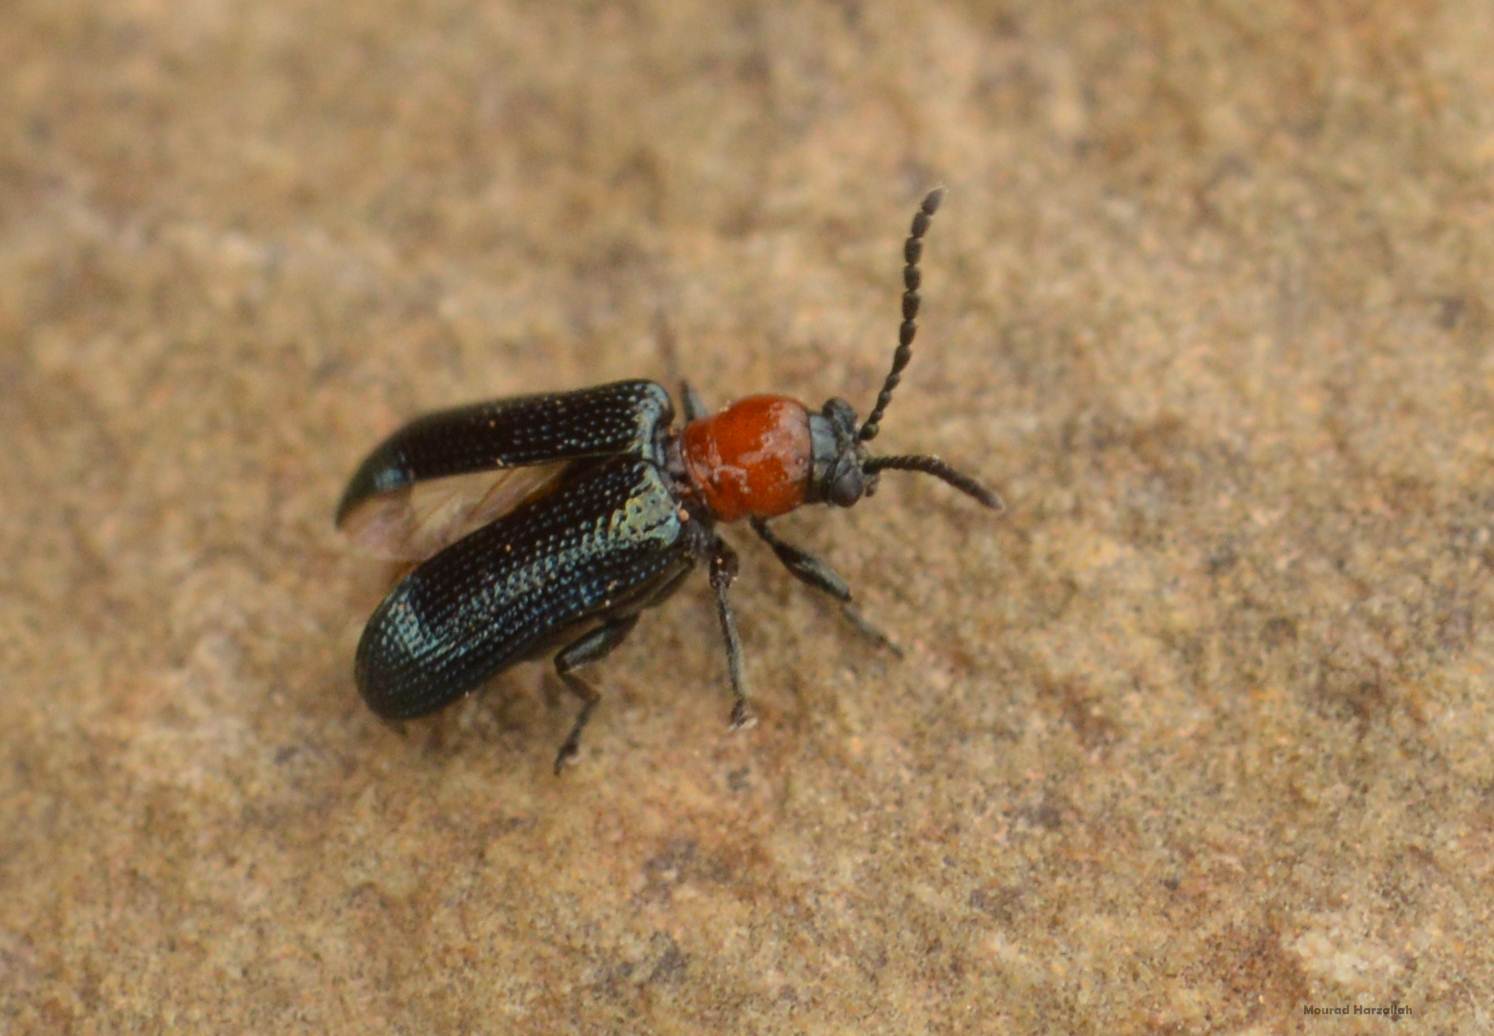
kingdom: Animalia
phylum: Arthropoda
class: Insecta
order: Coleoptera
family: Chrysomelidae
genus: Oulema
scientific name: Oulema hoffmannseggii
